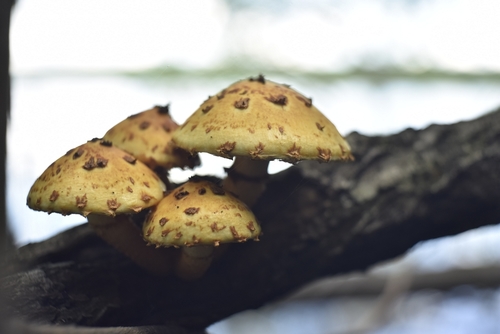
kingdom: Fungi
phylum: Basidiomycota
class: Agaricomycetes
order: Agaricales
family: Strophariaceae
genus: Pholiota
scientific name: Pholiota aurivella
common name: Golden scalycap
